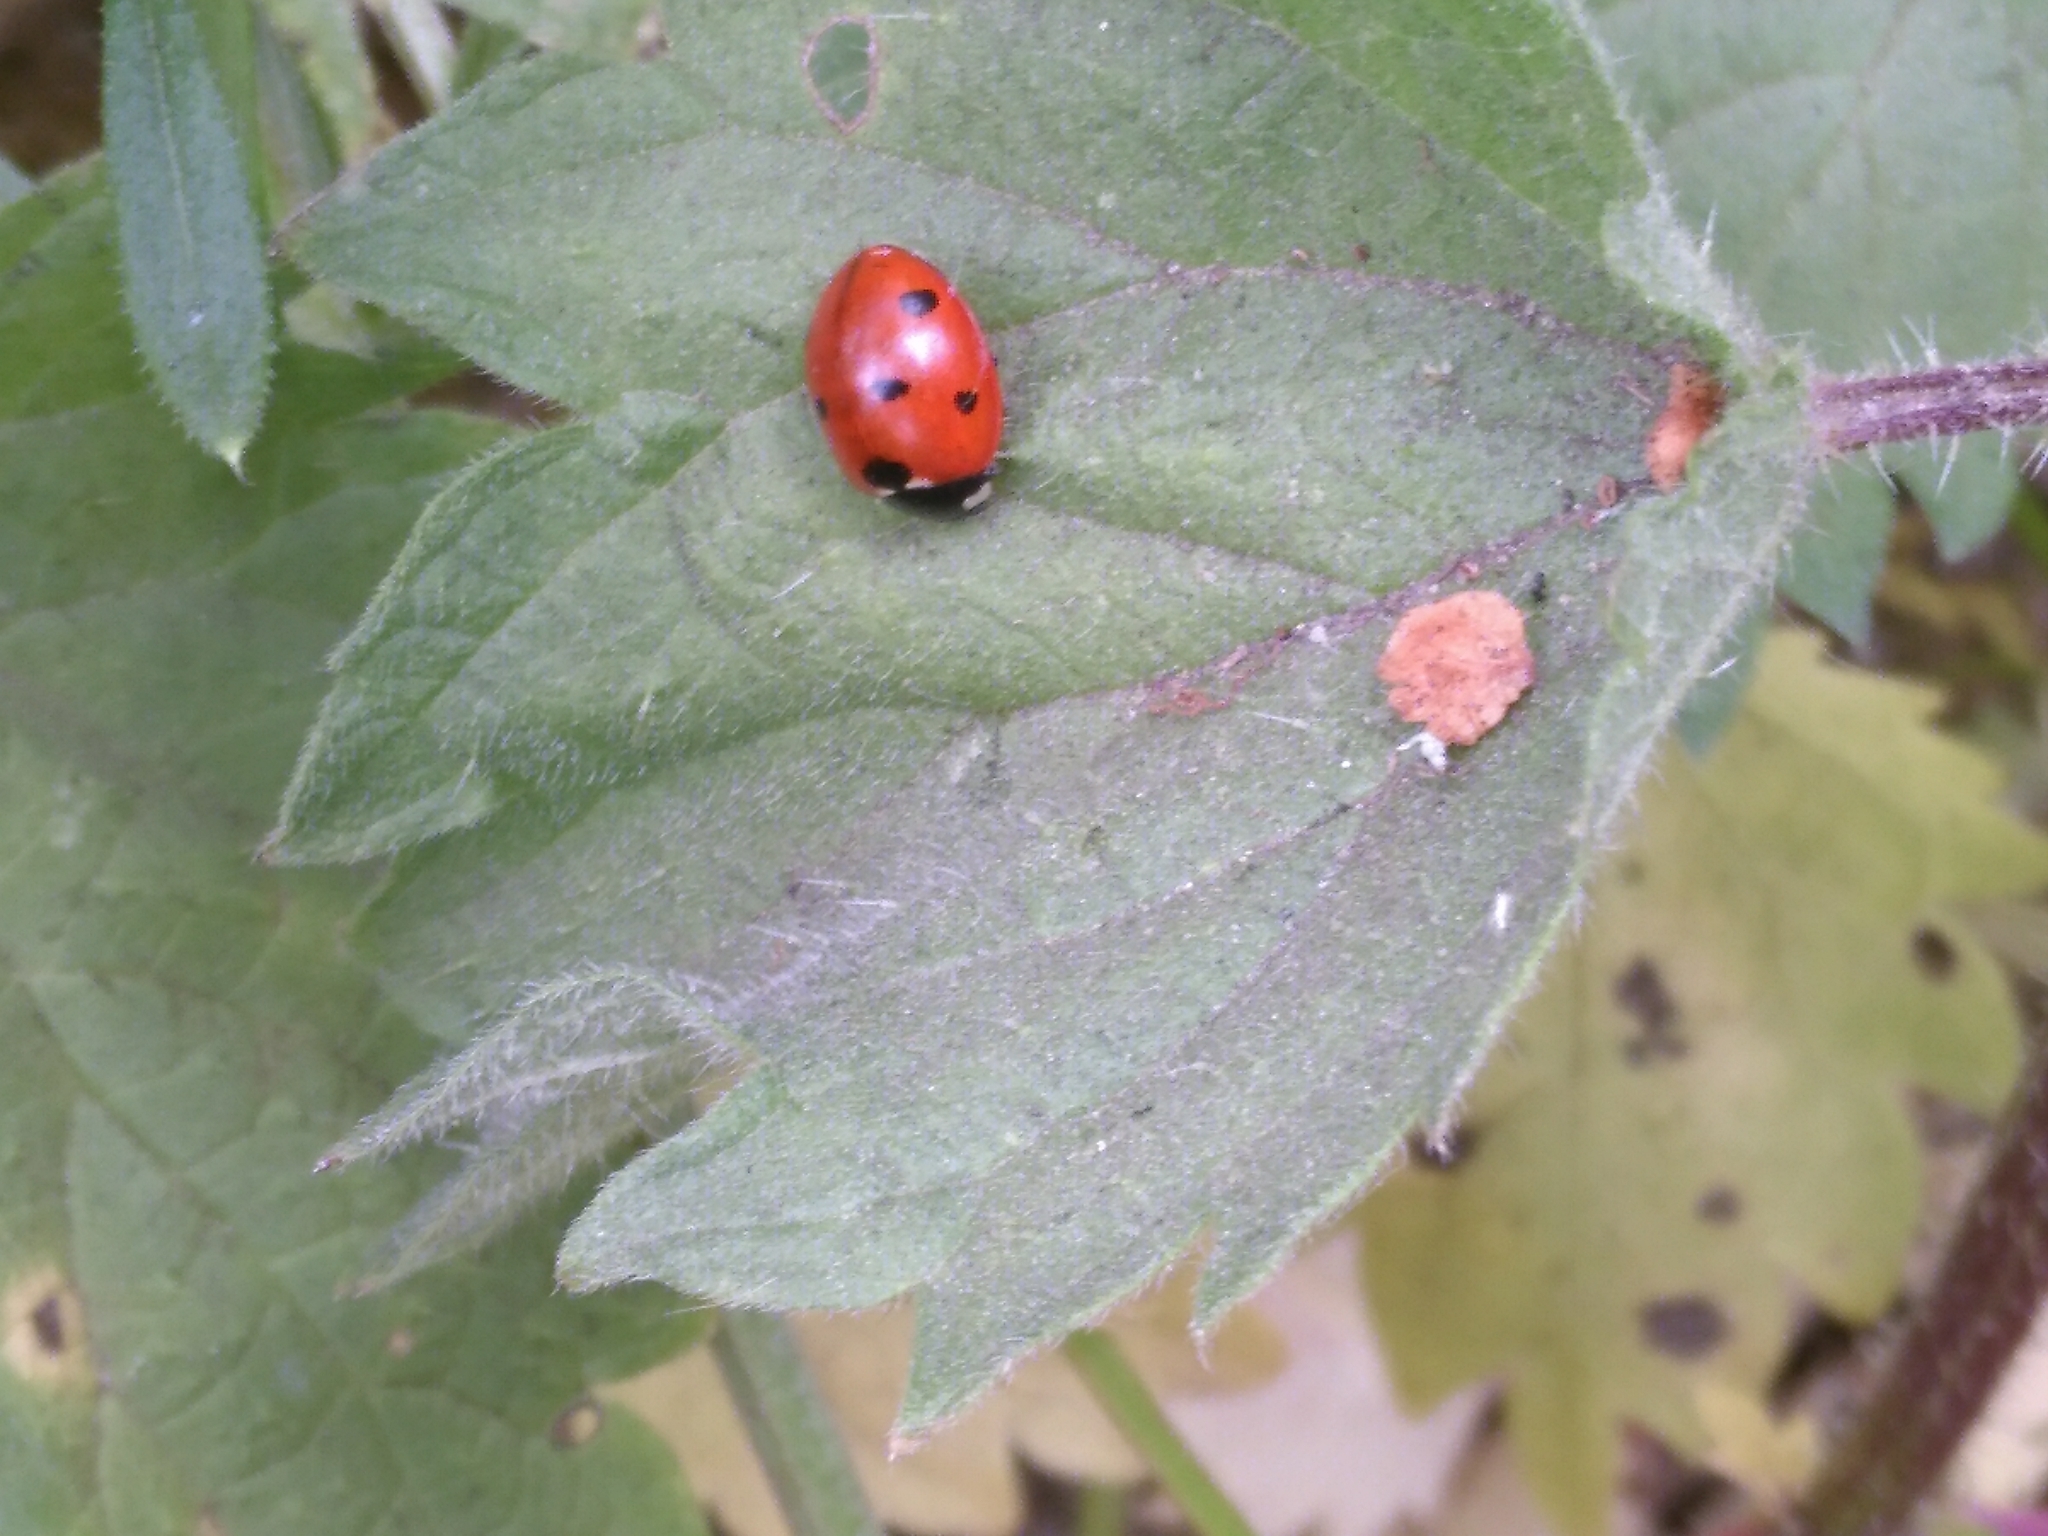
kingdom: Animalia
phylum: Arthropoda
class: Insecta
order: Coleoptera
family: Coccinellidae
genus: Coccinella
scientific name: Coccinella septempunctata
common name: Sevenspotted lady beetle
